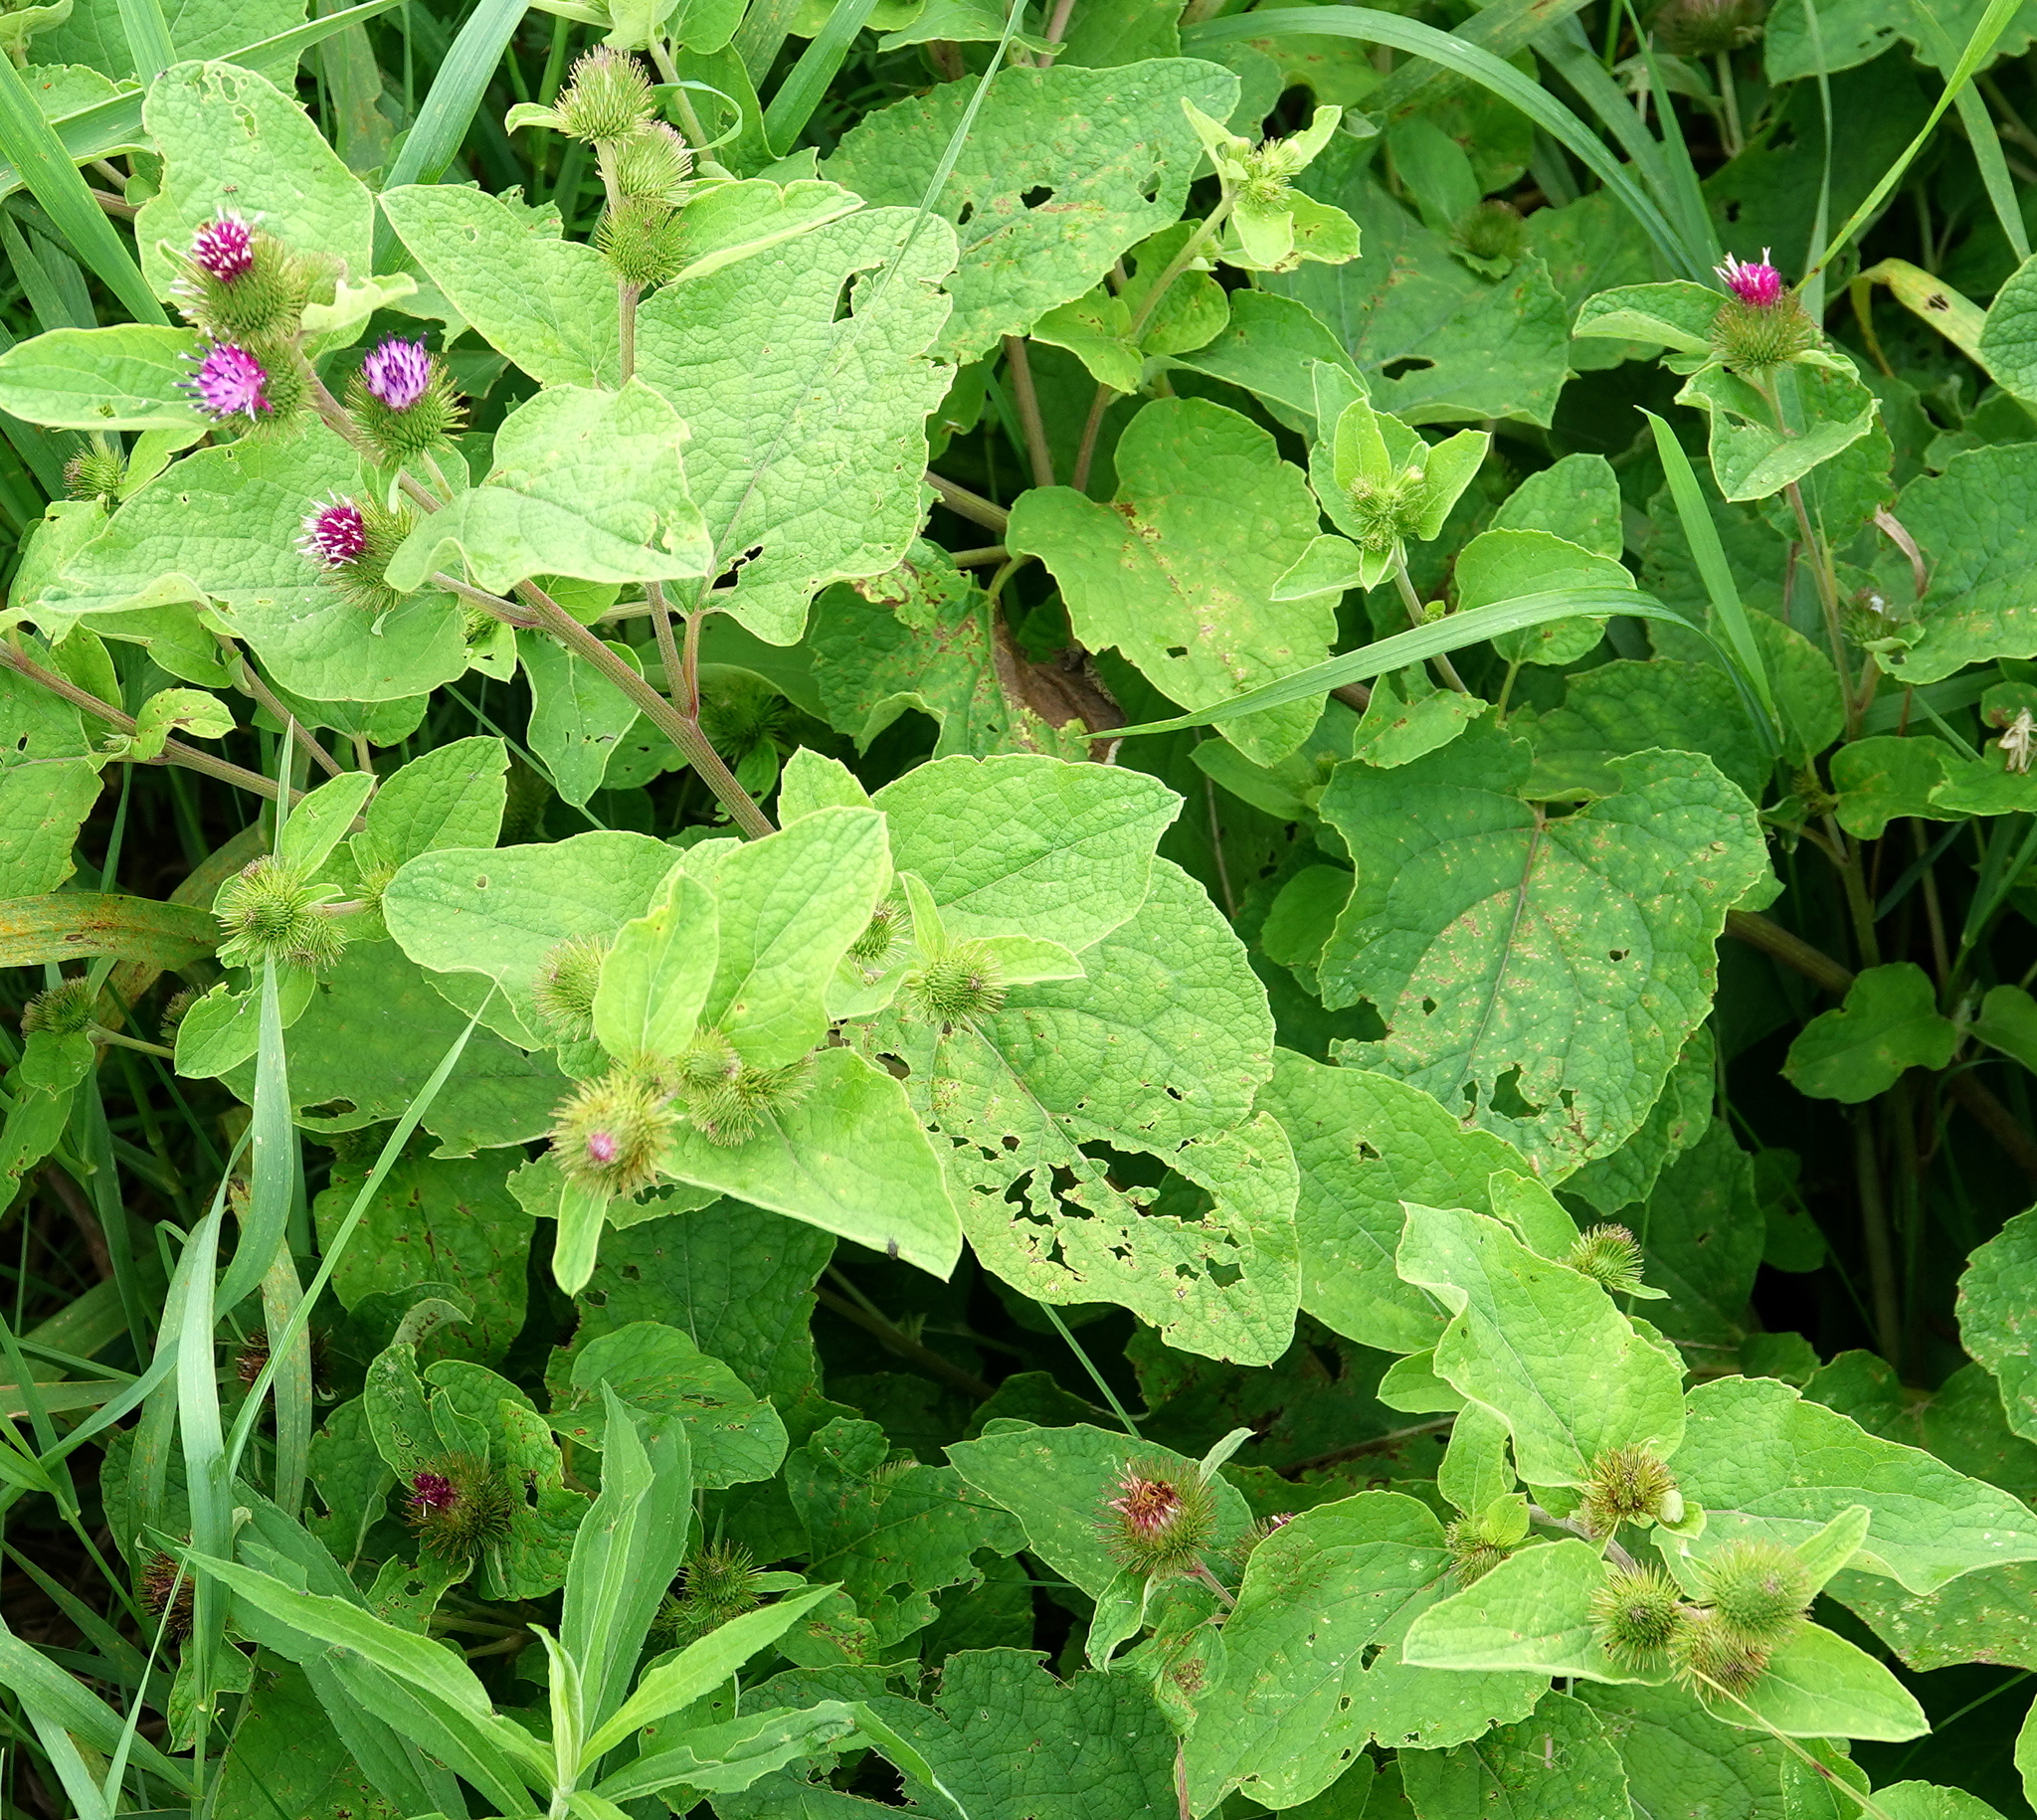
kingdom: Plantae
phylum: Tracheophyta
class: Magnoliopsida
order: Asterales
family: Asteraceae
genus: Arctium
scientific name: Arctium minus
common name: Lesser burdock
